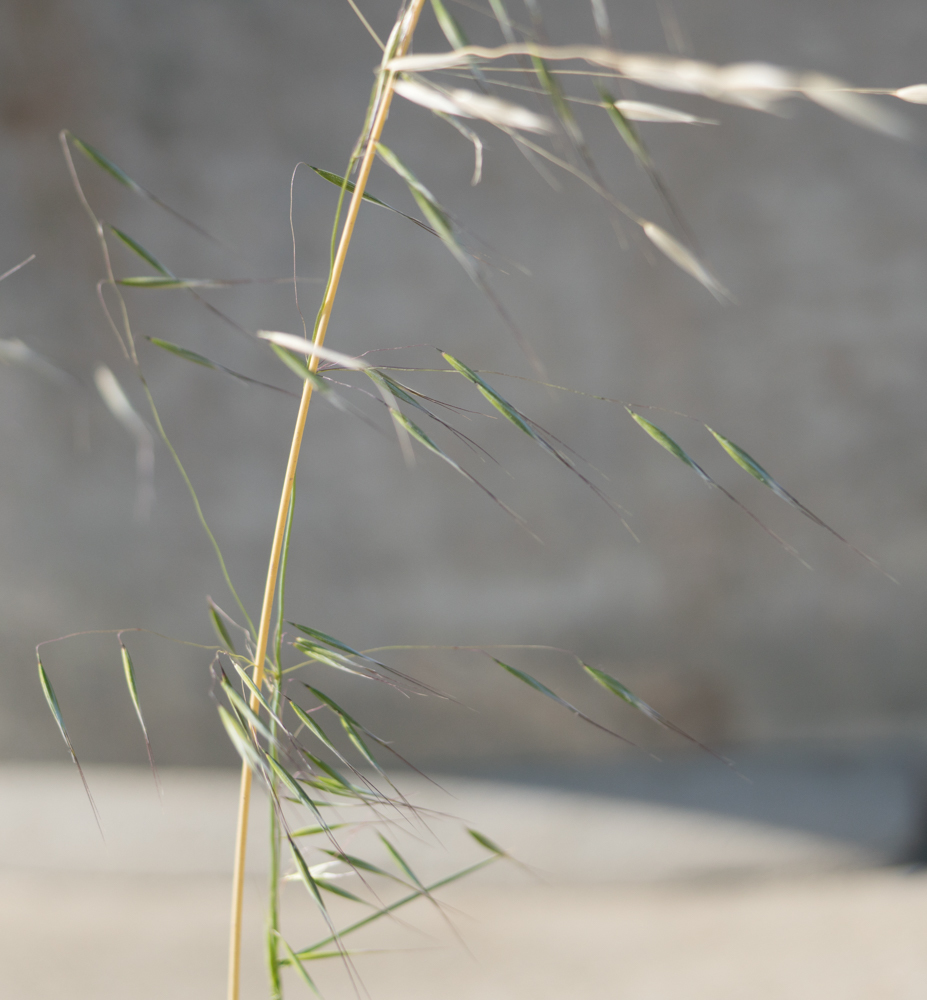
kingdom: Plantae
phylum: Tracheophyta
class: Liliopsida
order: Poales
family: Poaceae
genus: Avena
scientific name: Avena barbata
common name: Slender oat
